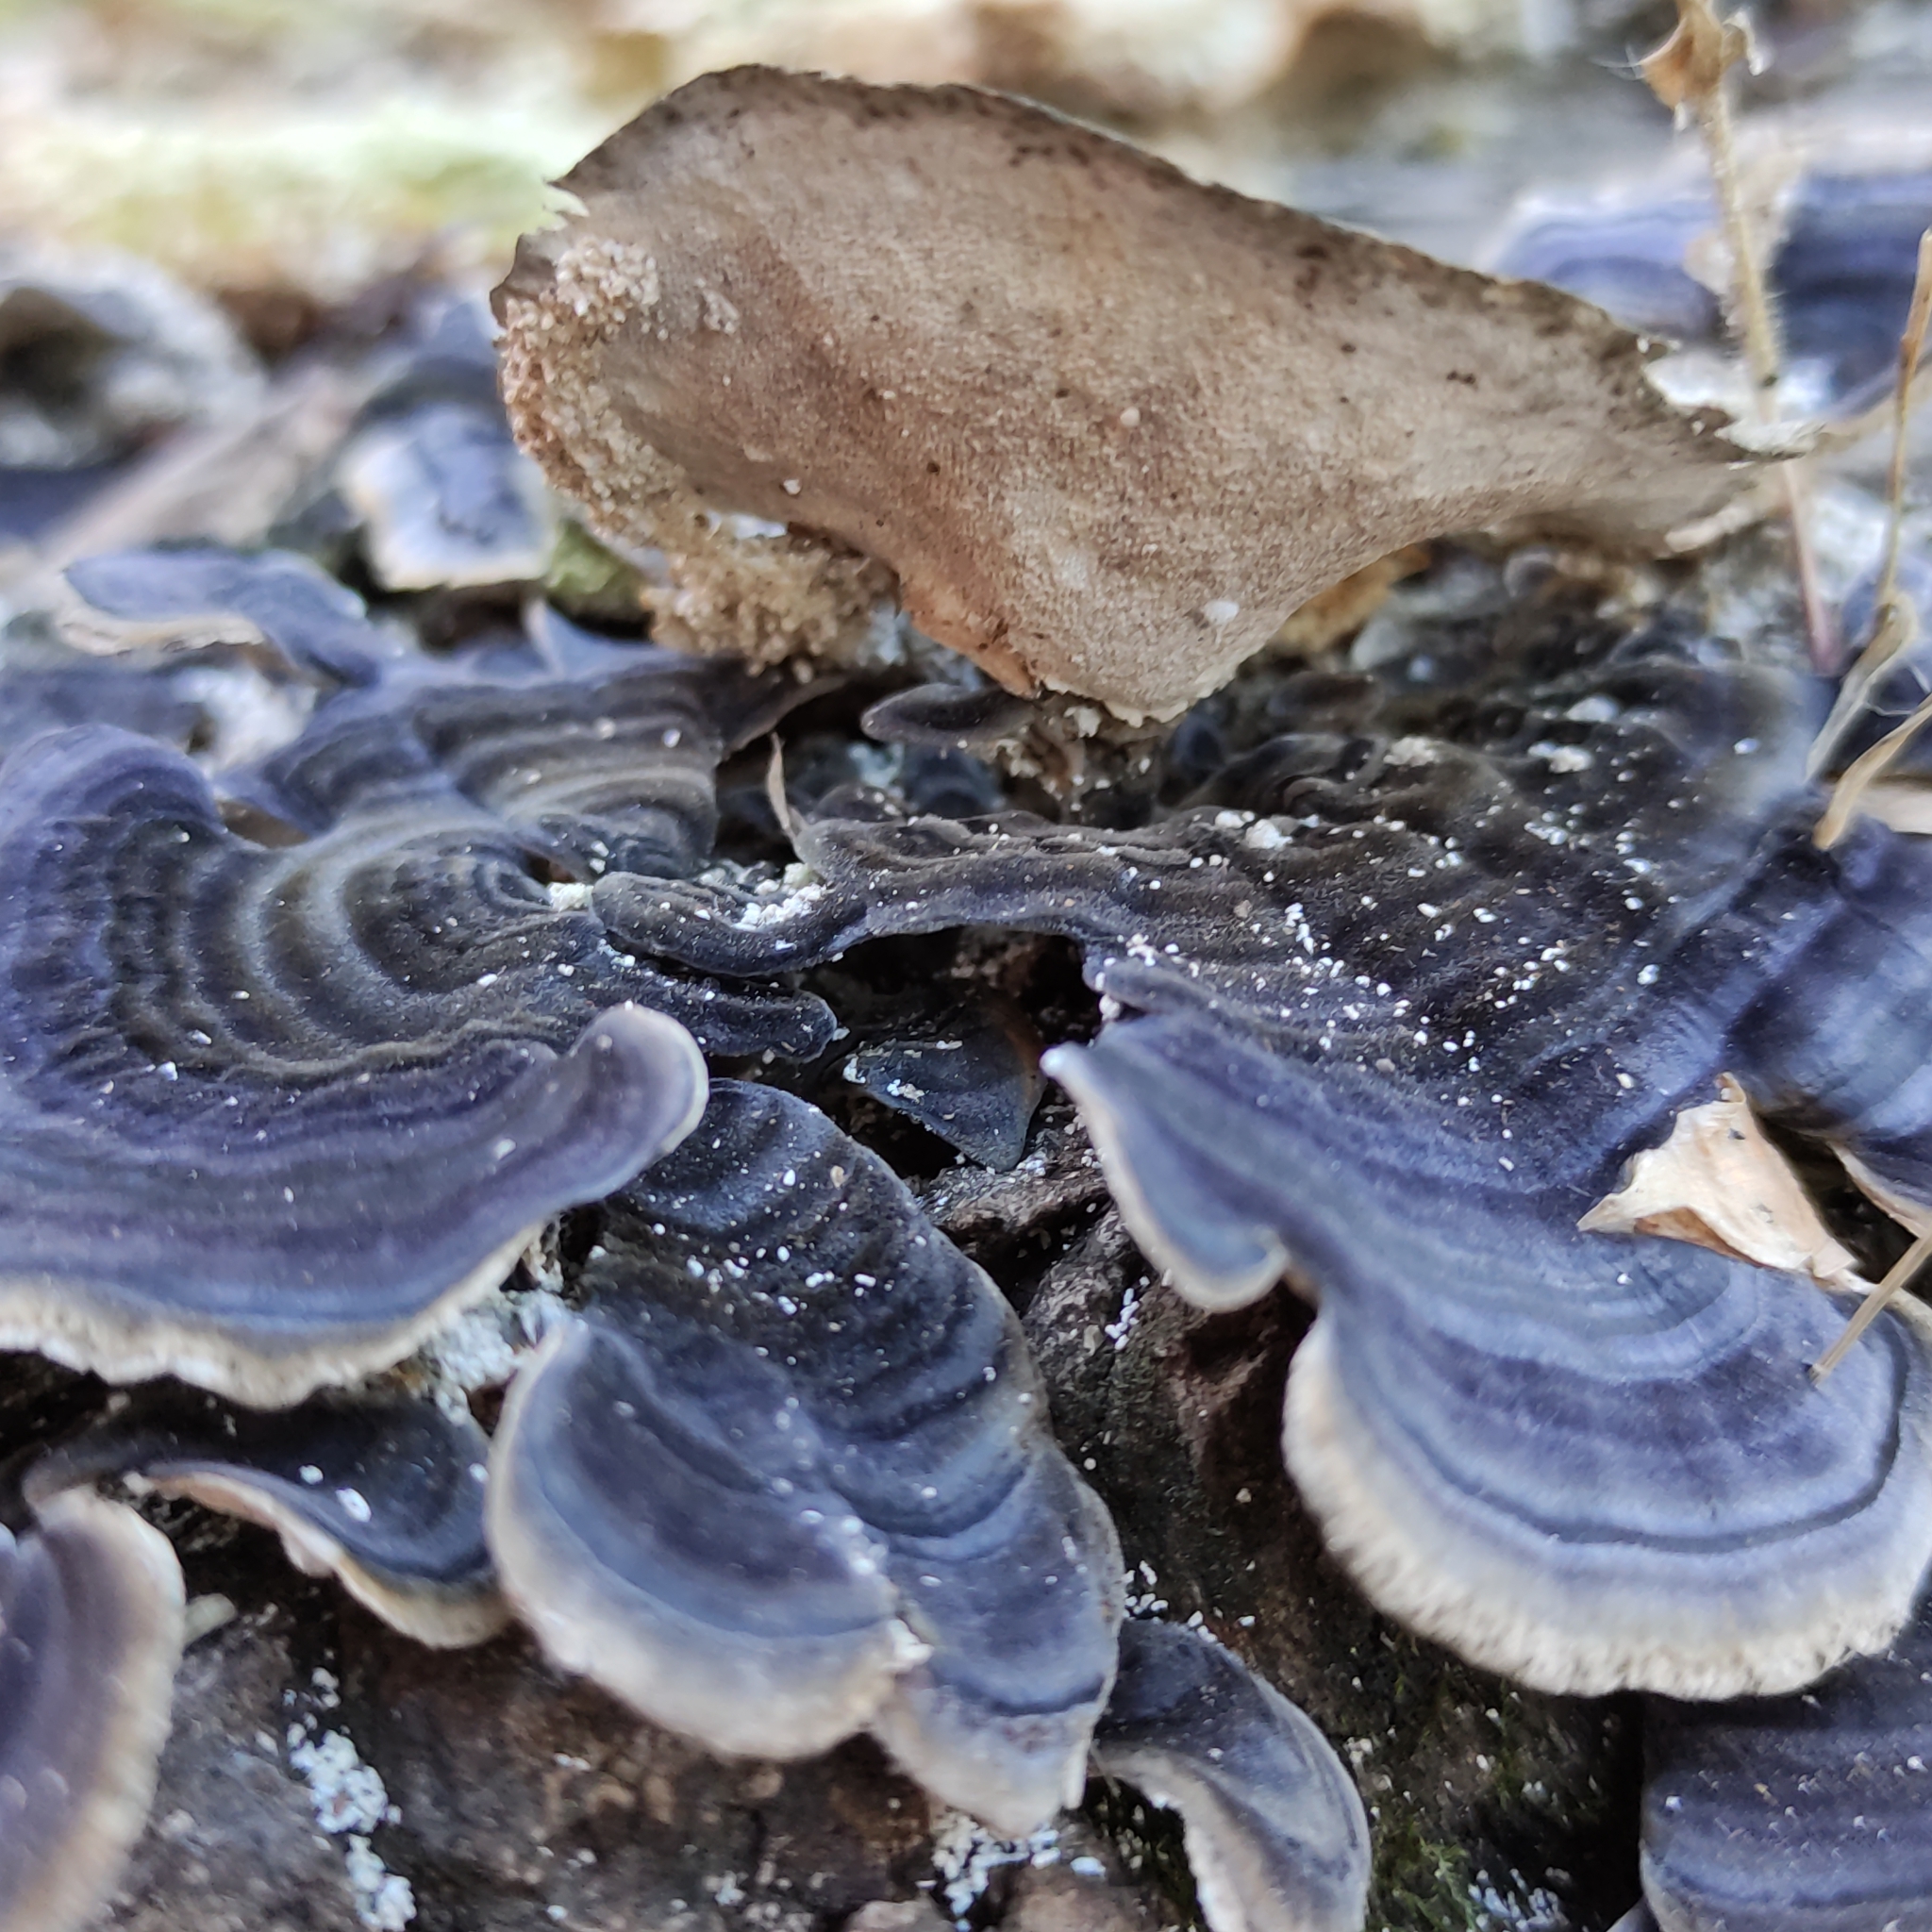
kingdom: Fungi
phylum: Basidiomycota
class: Agaricomycetes
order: Polyporales
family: Polyporaceae
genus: Trametes
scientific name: Trametes versicolor
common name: Turkeytail
